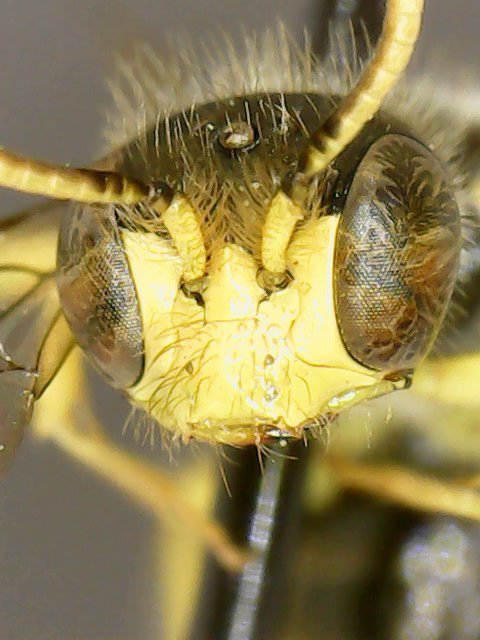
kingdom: Animalia
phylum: Arthropoda
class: Insecta
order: Hymenoptera
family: Andrenidae
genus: Calliopsis
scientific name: Calliopsis andreniformis
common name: Eastern calliopsis bee
